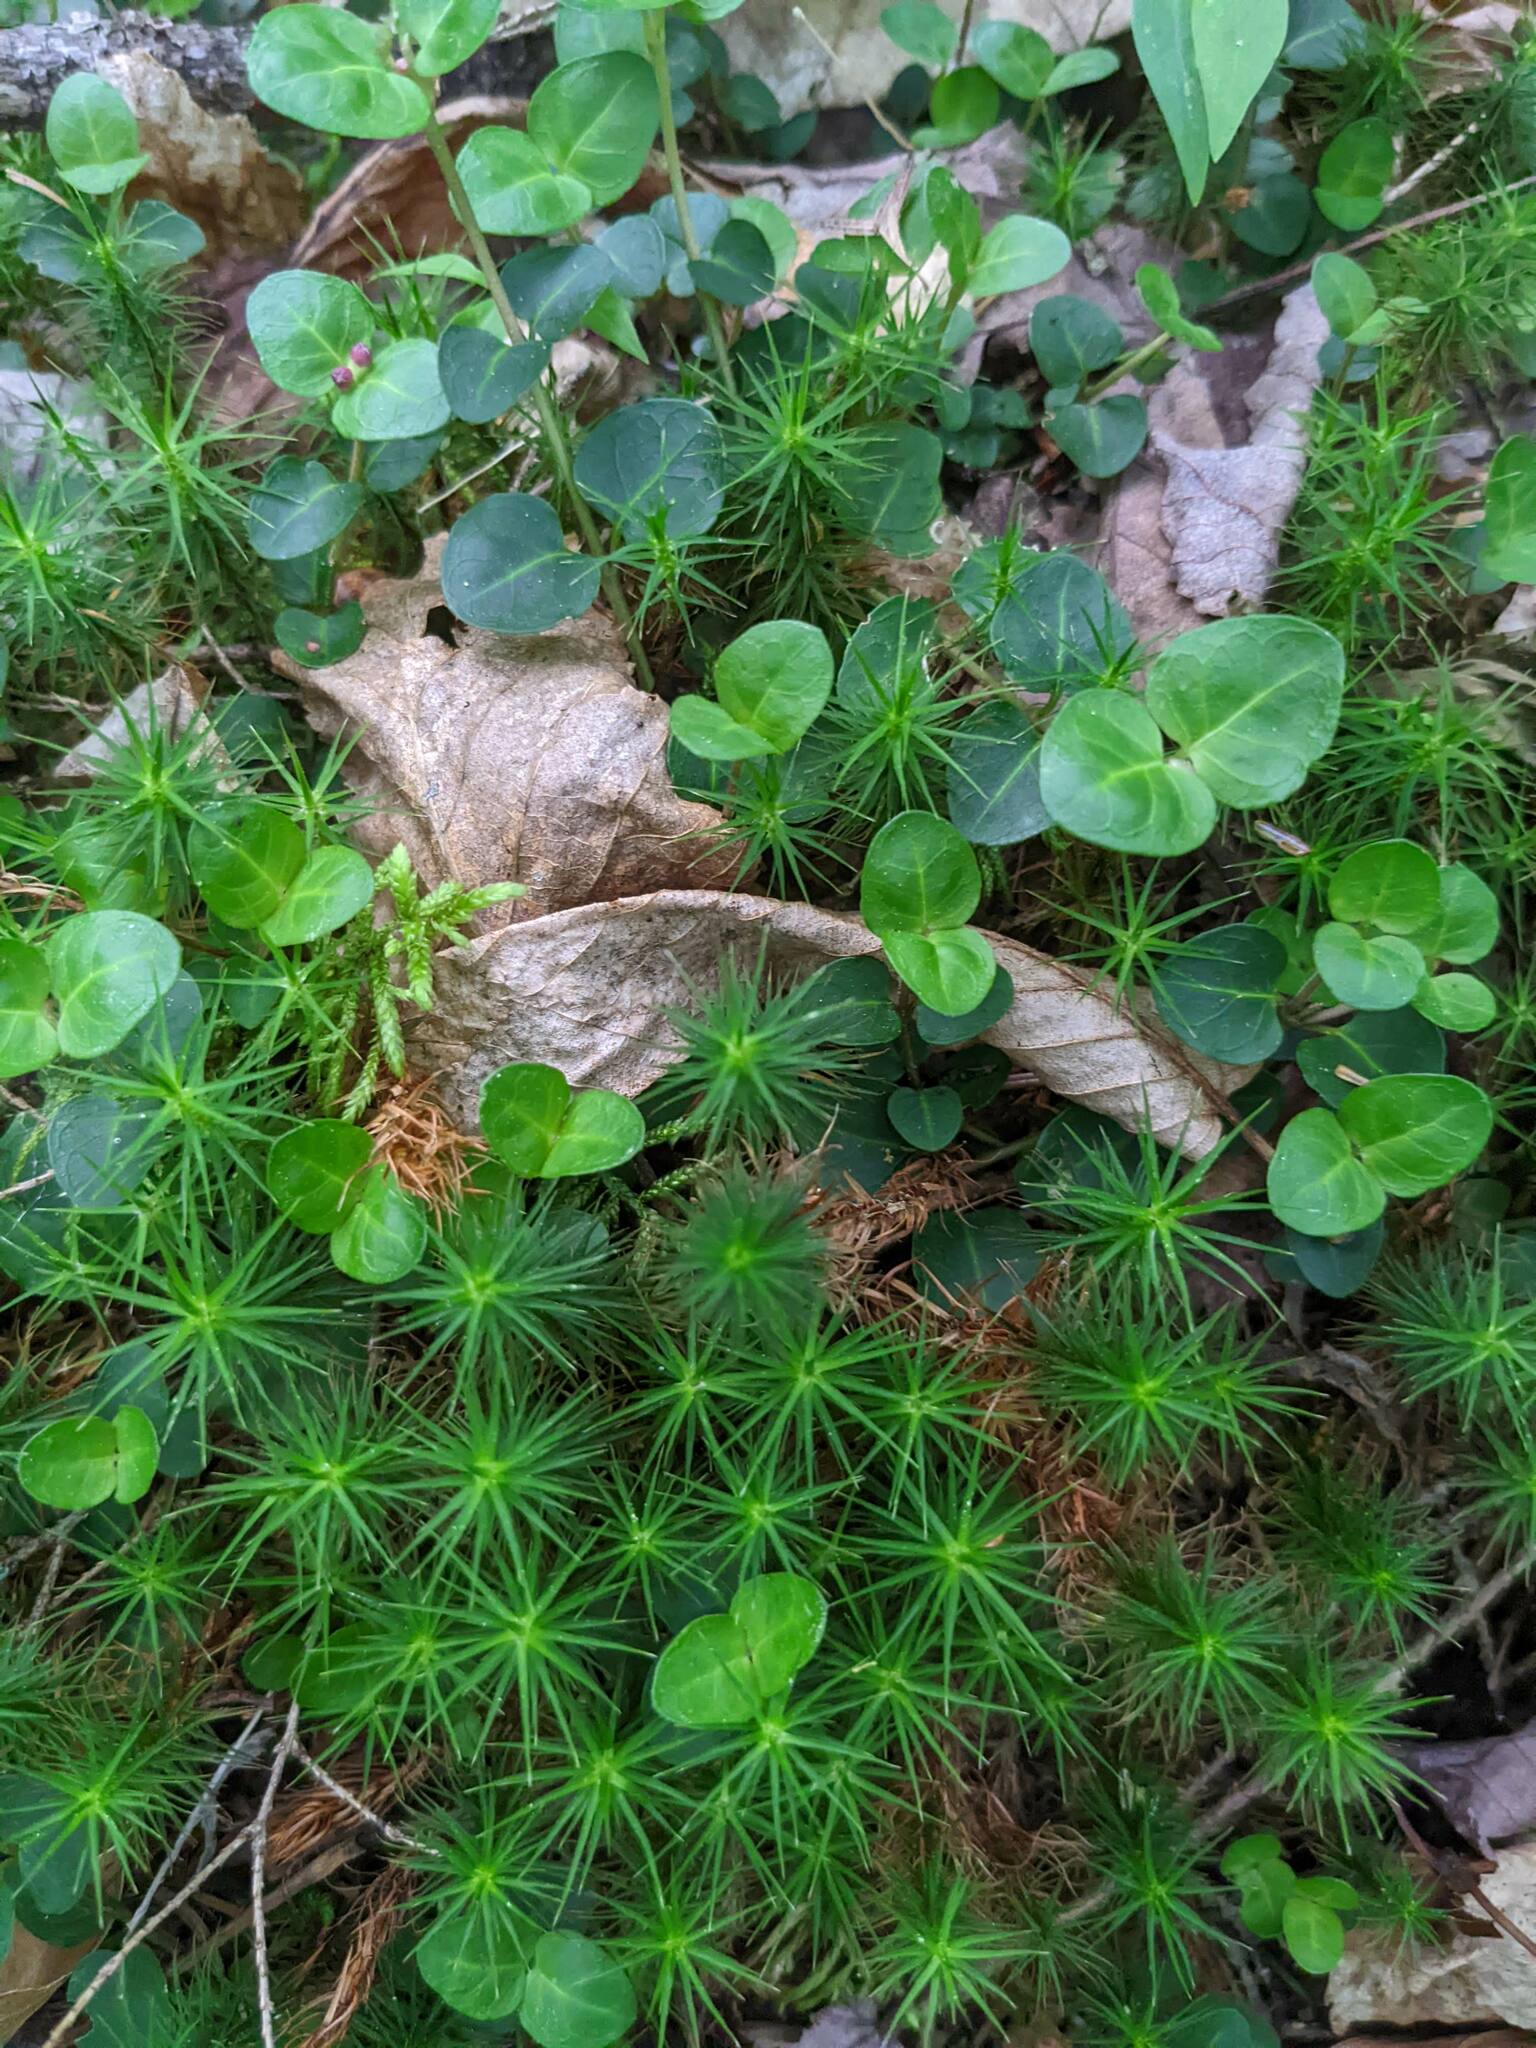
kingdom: Plantae
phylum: Tracheophyta
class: Magnoliopsida
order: Gentianales
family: Rubiaceae
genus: Mitchella
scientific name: Mitchella repens
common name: Partridge-berry
